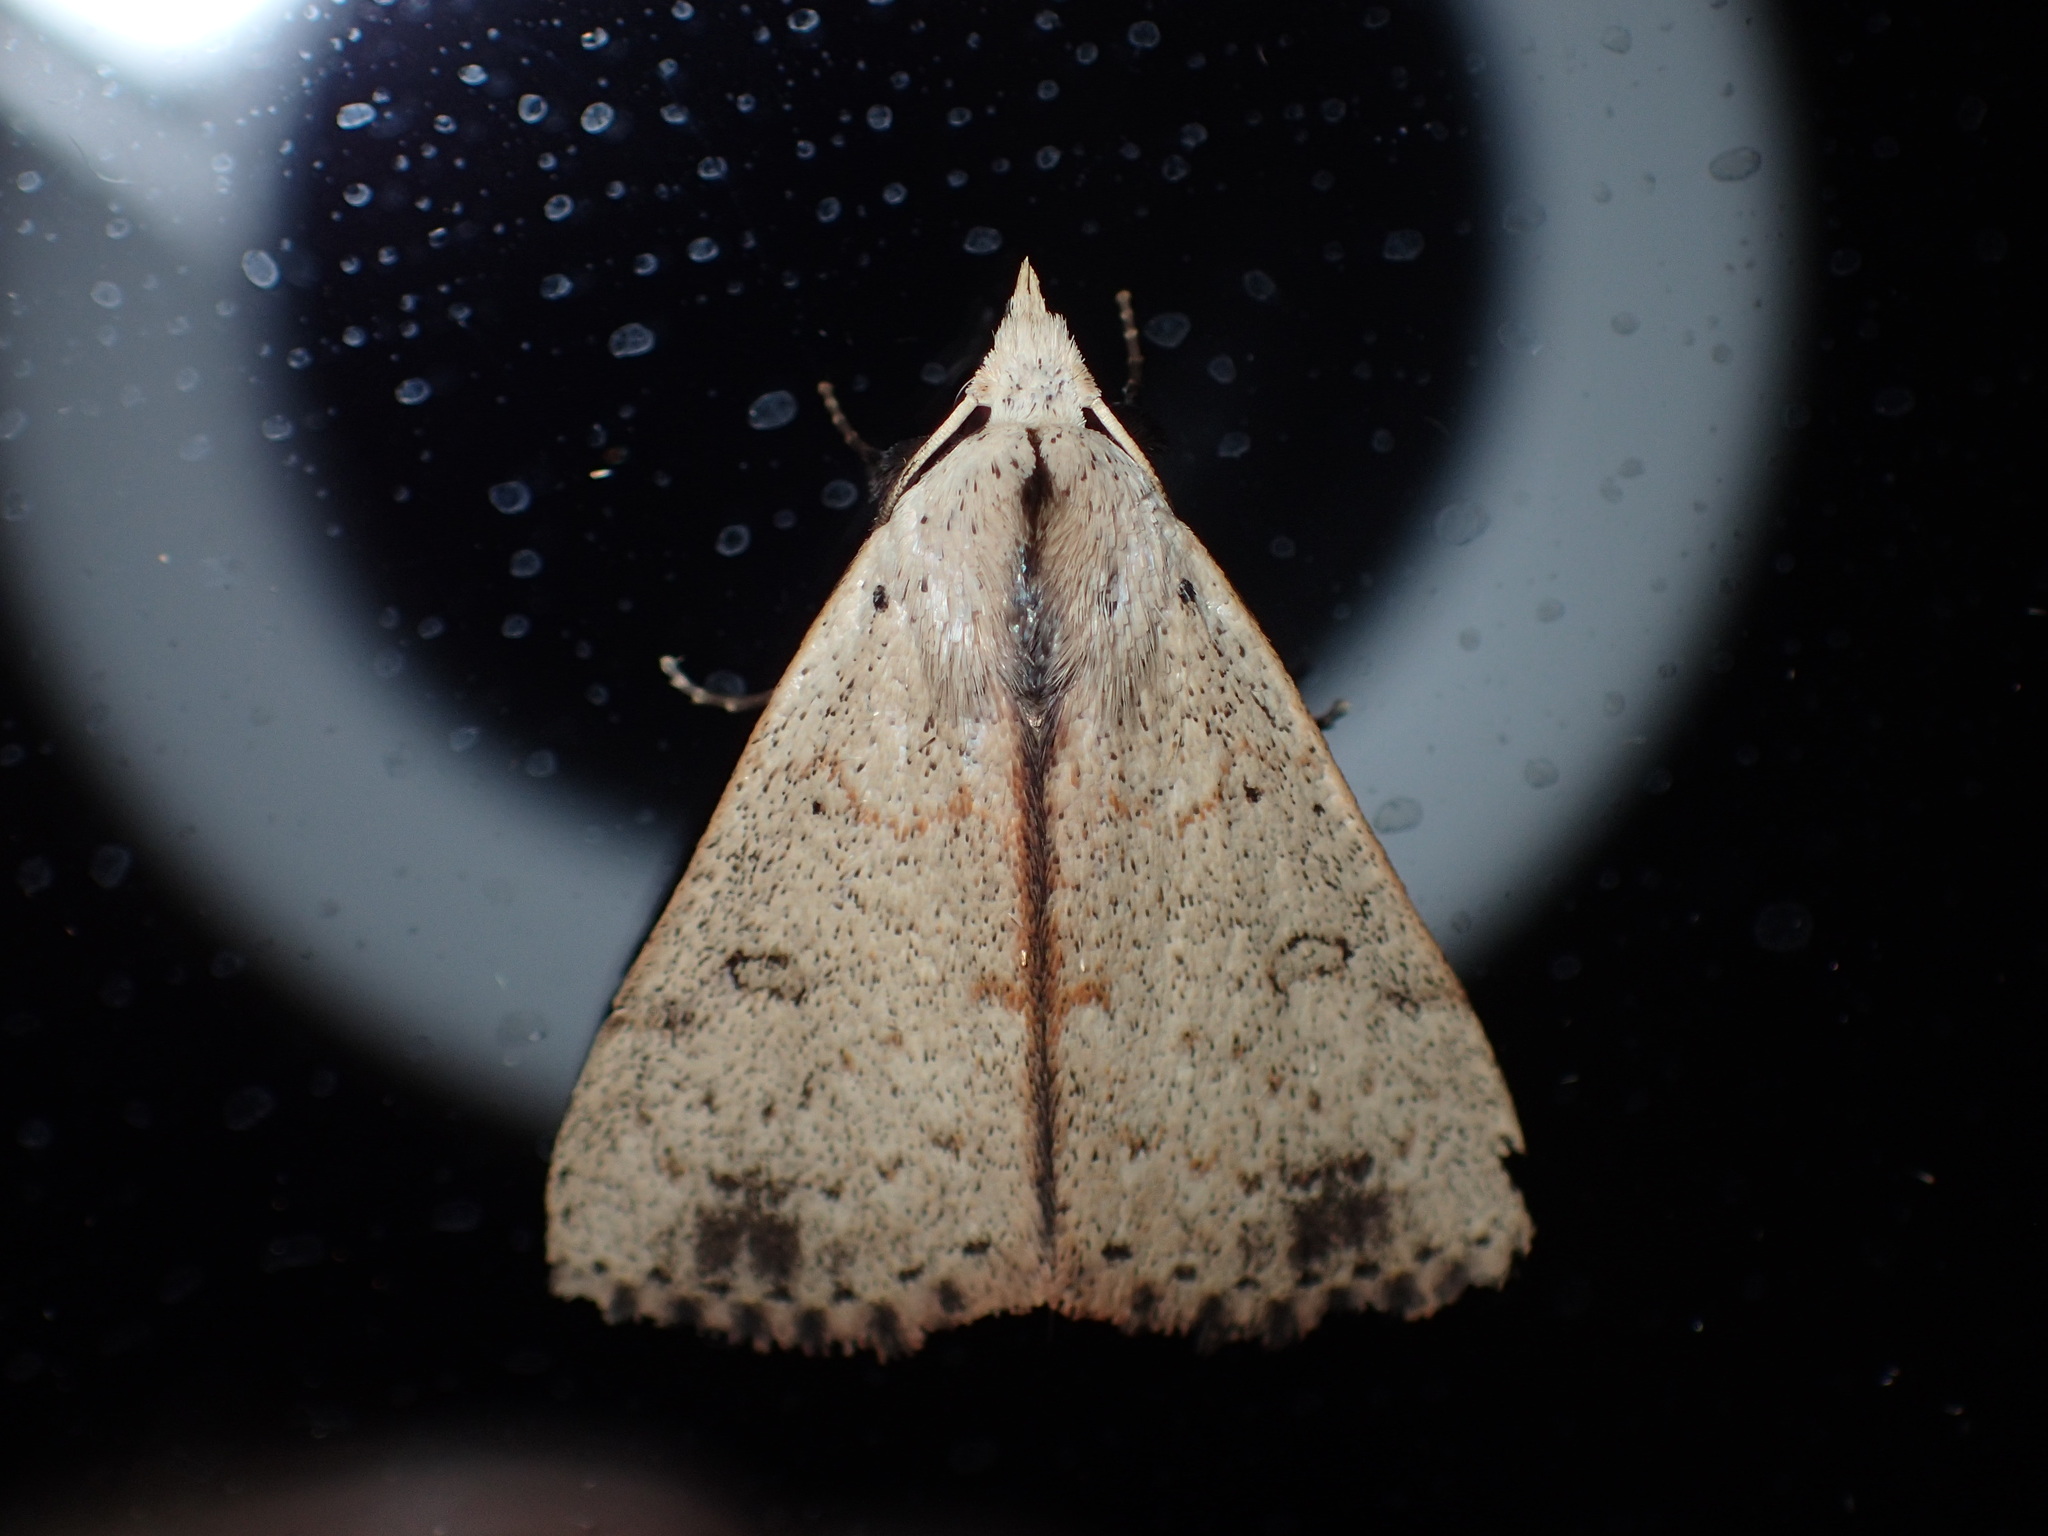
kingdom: Animalia
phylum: Arthropoda
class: Insecta
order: Lepidoptera
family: Erebidae
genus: Scolecocampa
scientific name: Scolecocampa liburna
